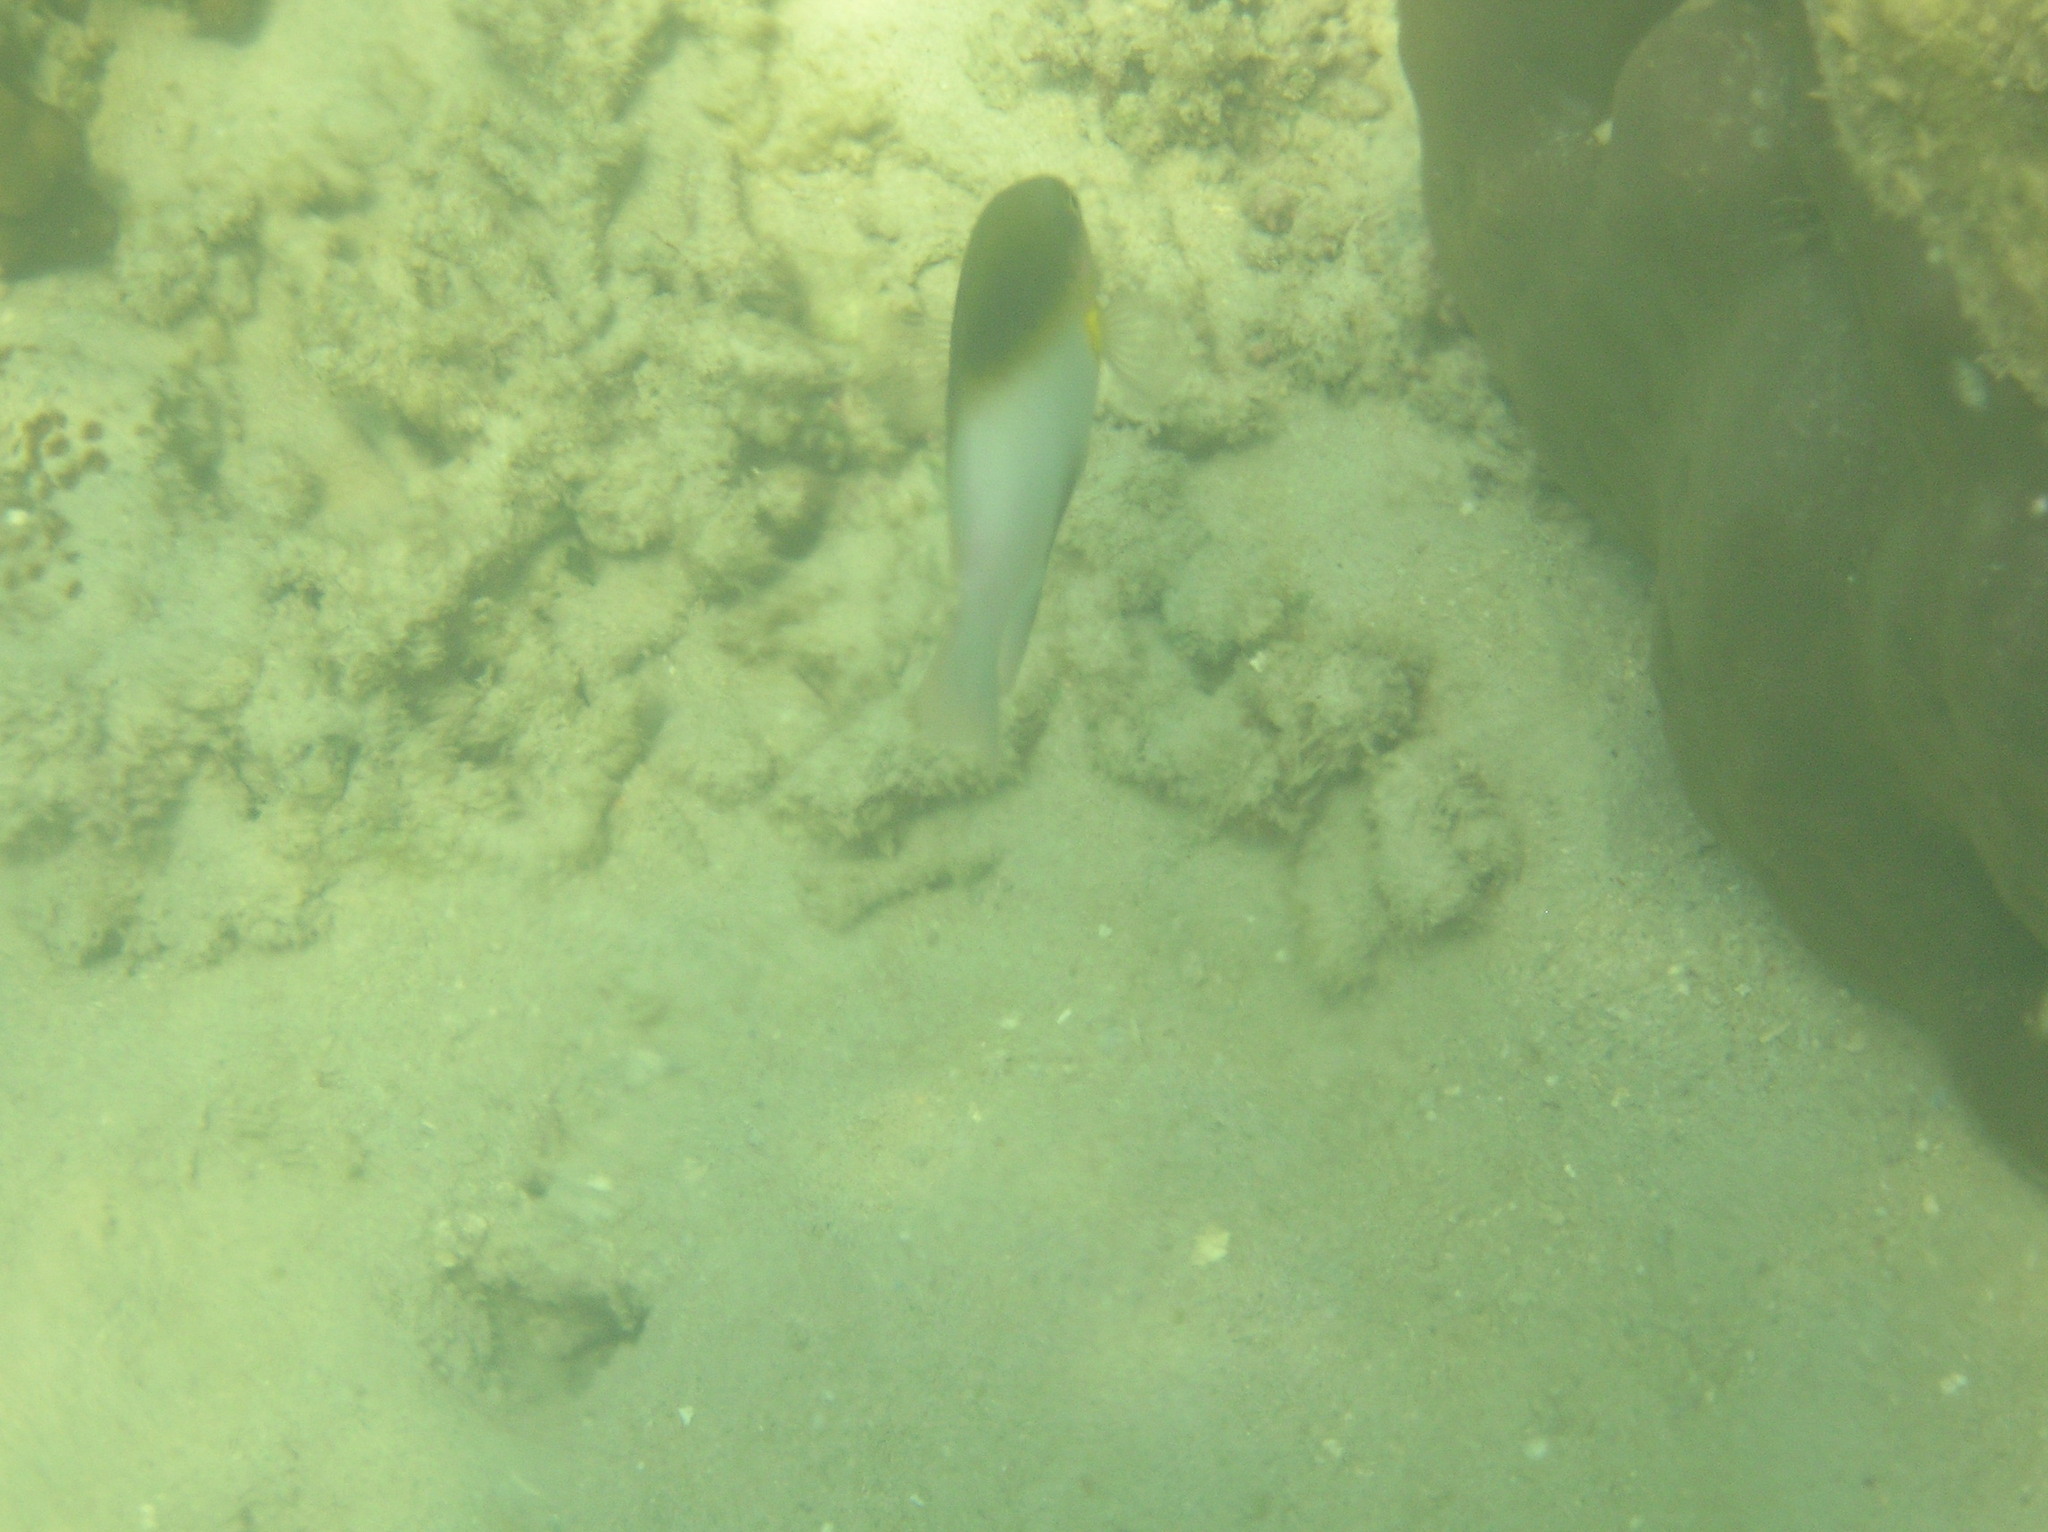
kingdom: Animalia
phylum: Chordata
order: Perciformes
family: Pomacentridae
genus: Dischistodus
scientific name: Dischistodus melanotus
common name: Black-vent damsel
